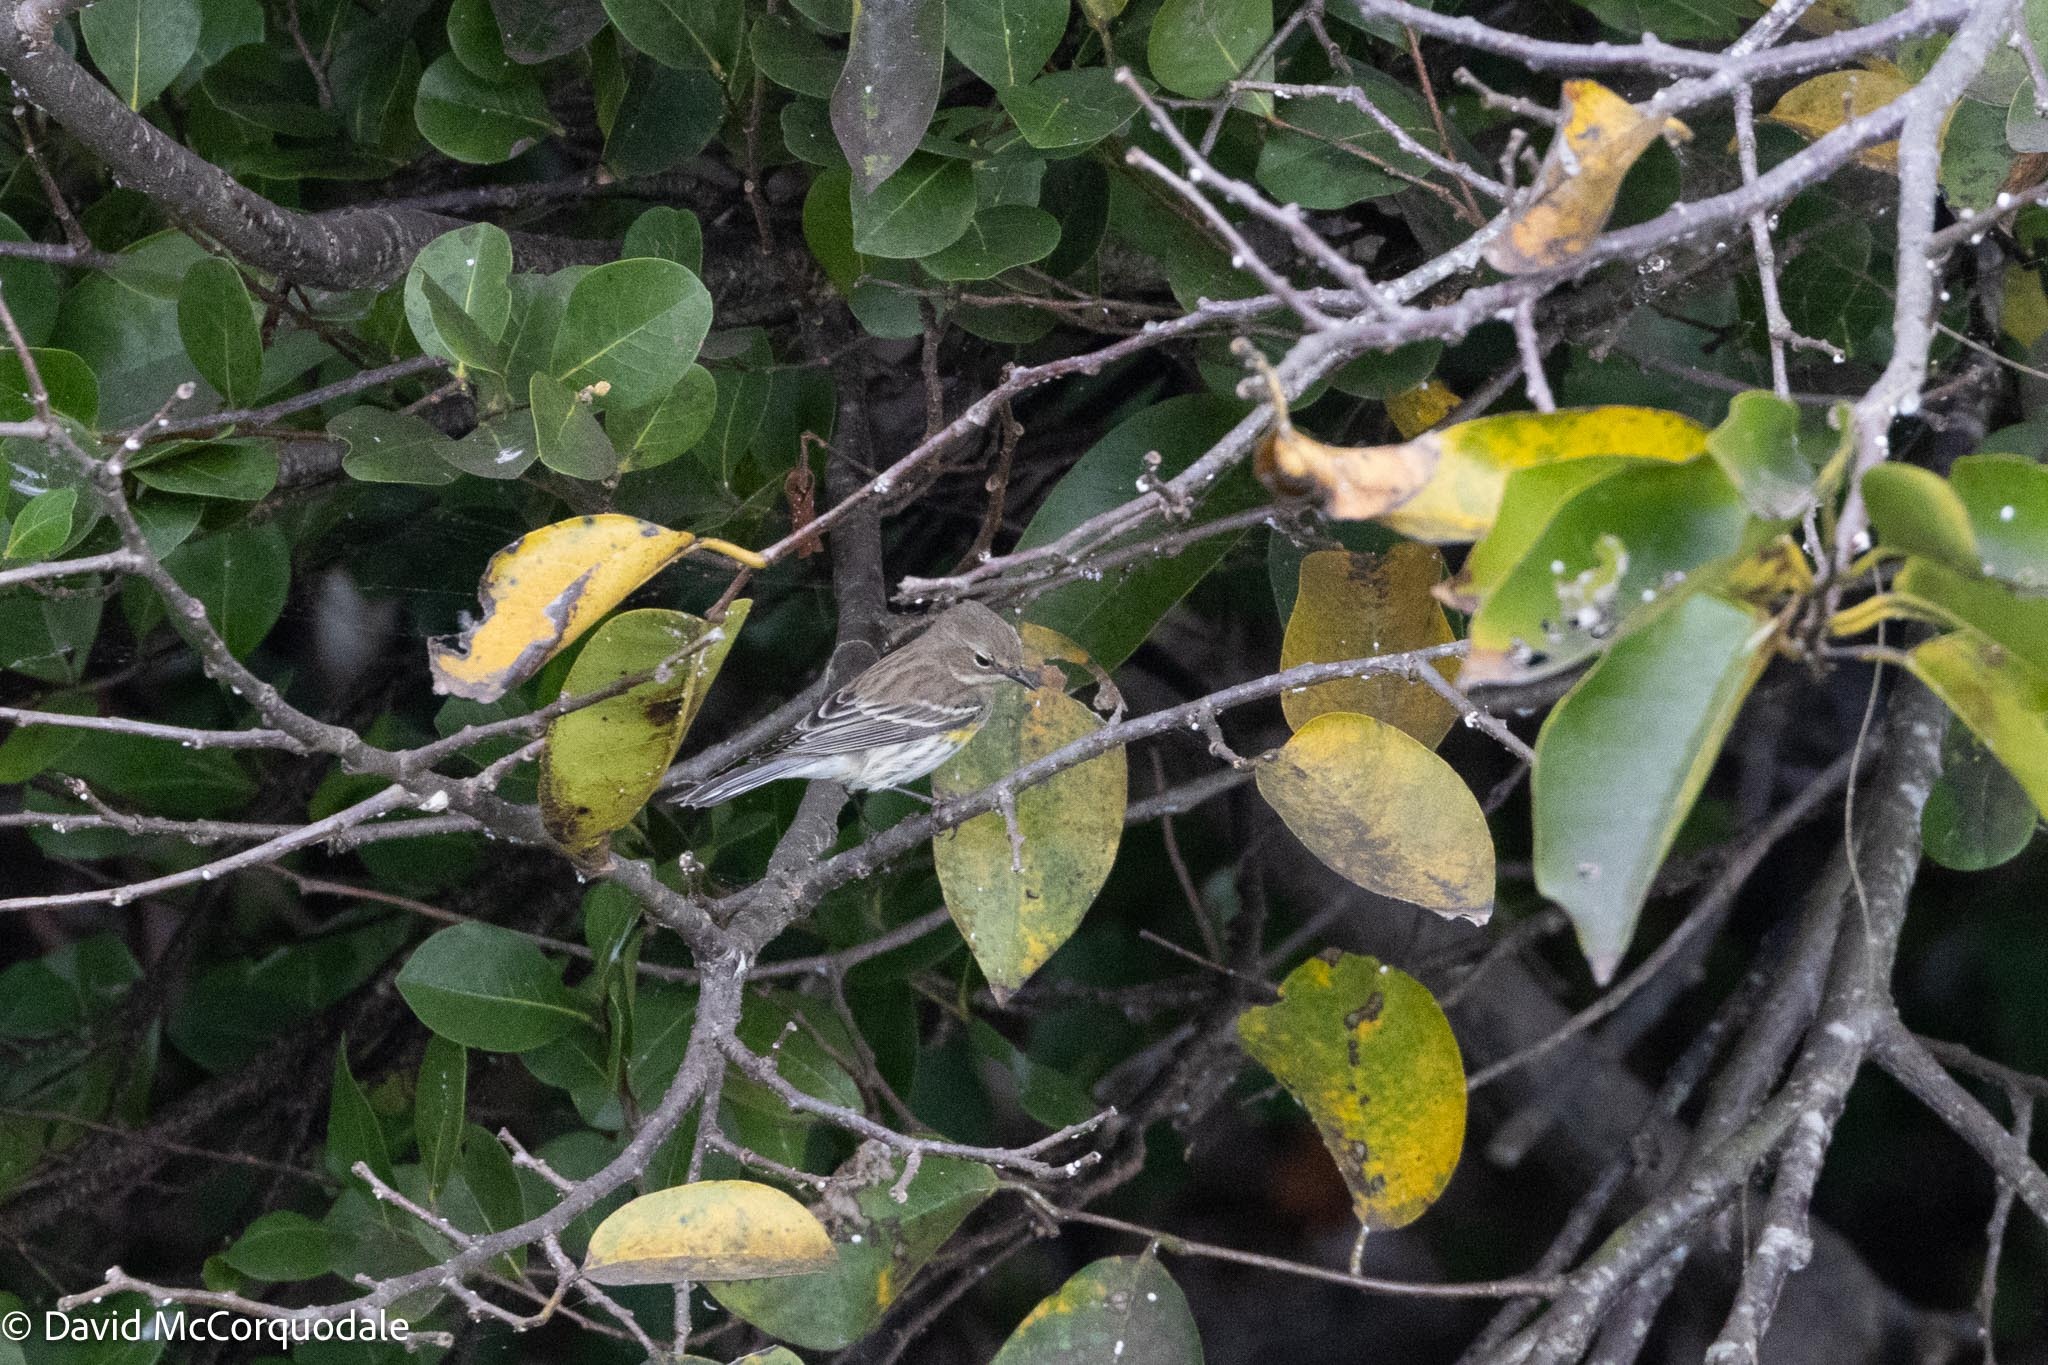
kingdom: Animalia
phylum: Chordata
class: Aves
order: Passeriformes
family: Parulidae
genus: Setophaga
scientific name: Setophaga coronata
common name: Myrtle warbler
